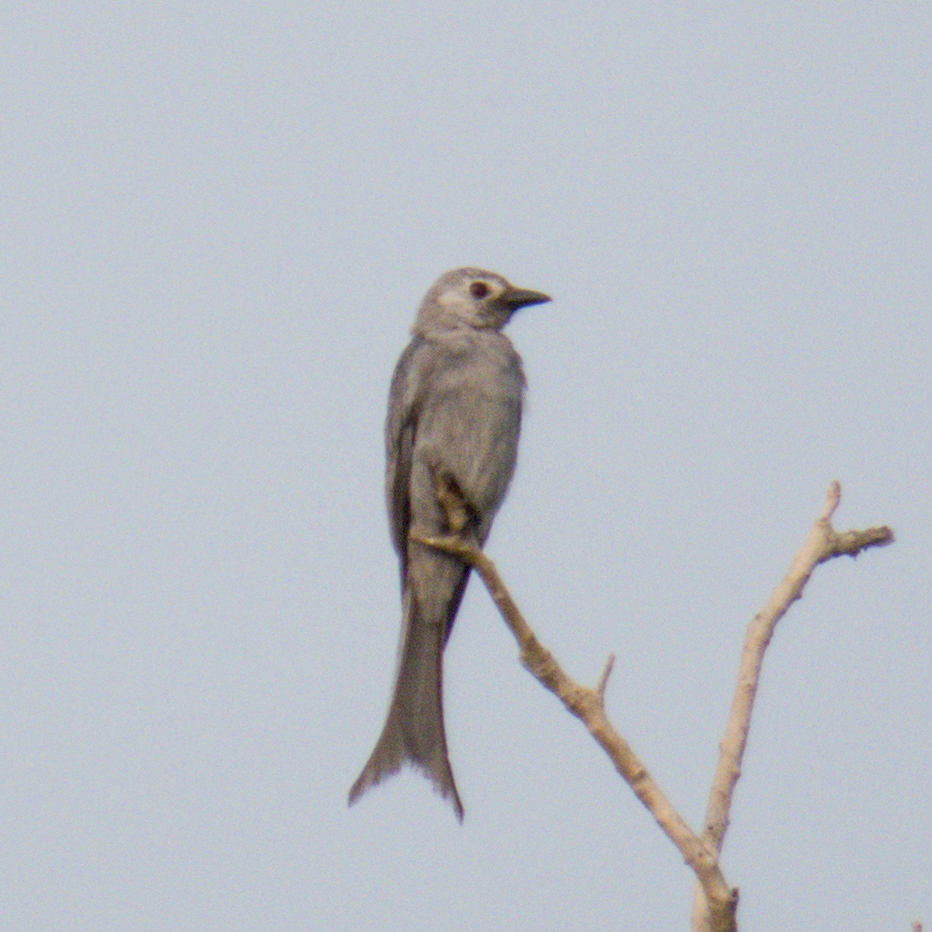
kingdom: Animalia
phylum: Chordata
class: Aves
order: Passeriformes
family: Dicruridae
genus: Dicrurus
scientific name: Dicrurus leucophaeus
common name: Ashy drongo
